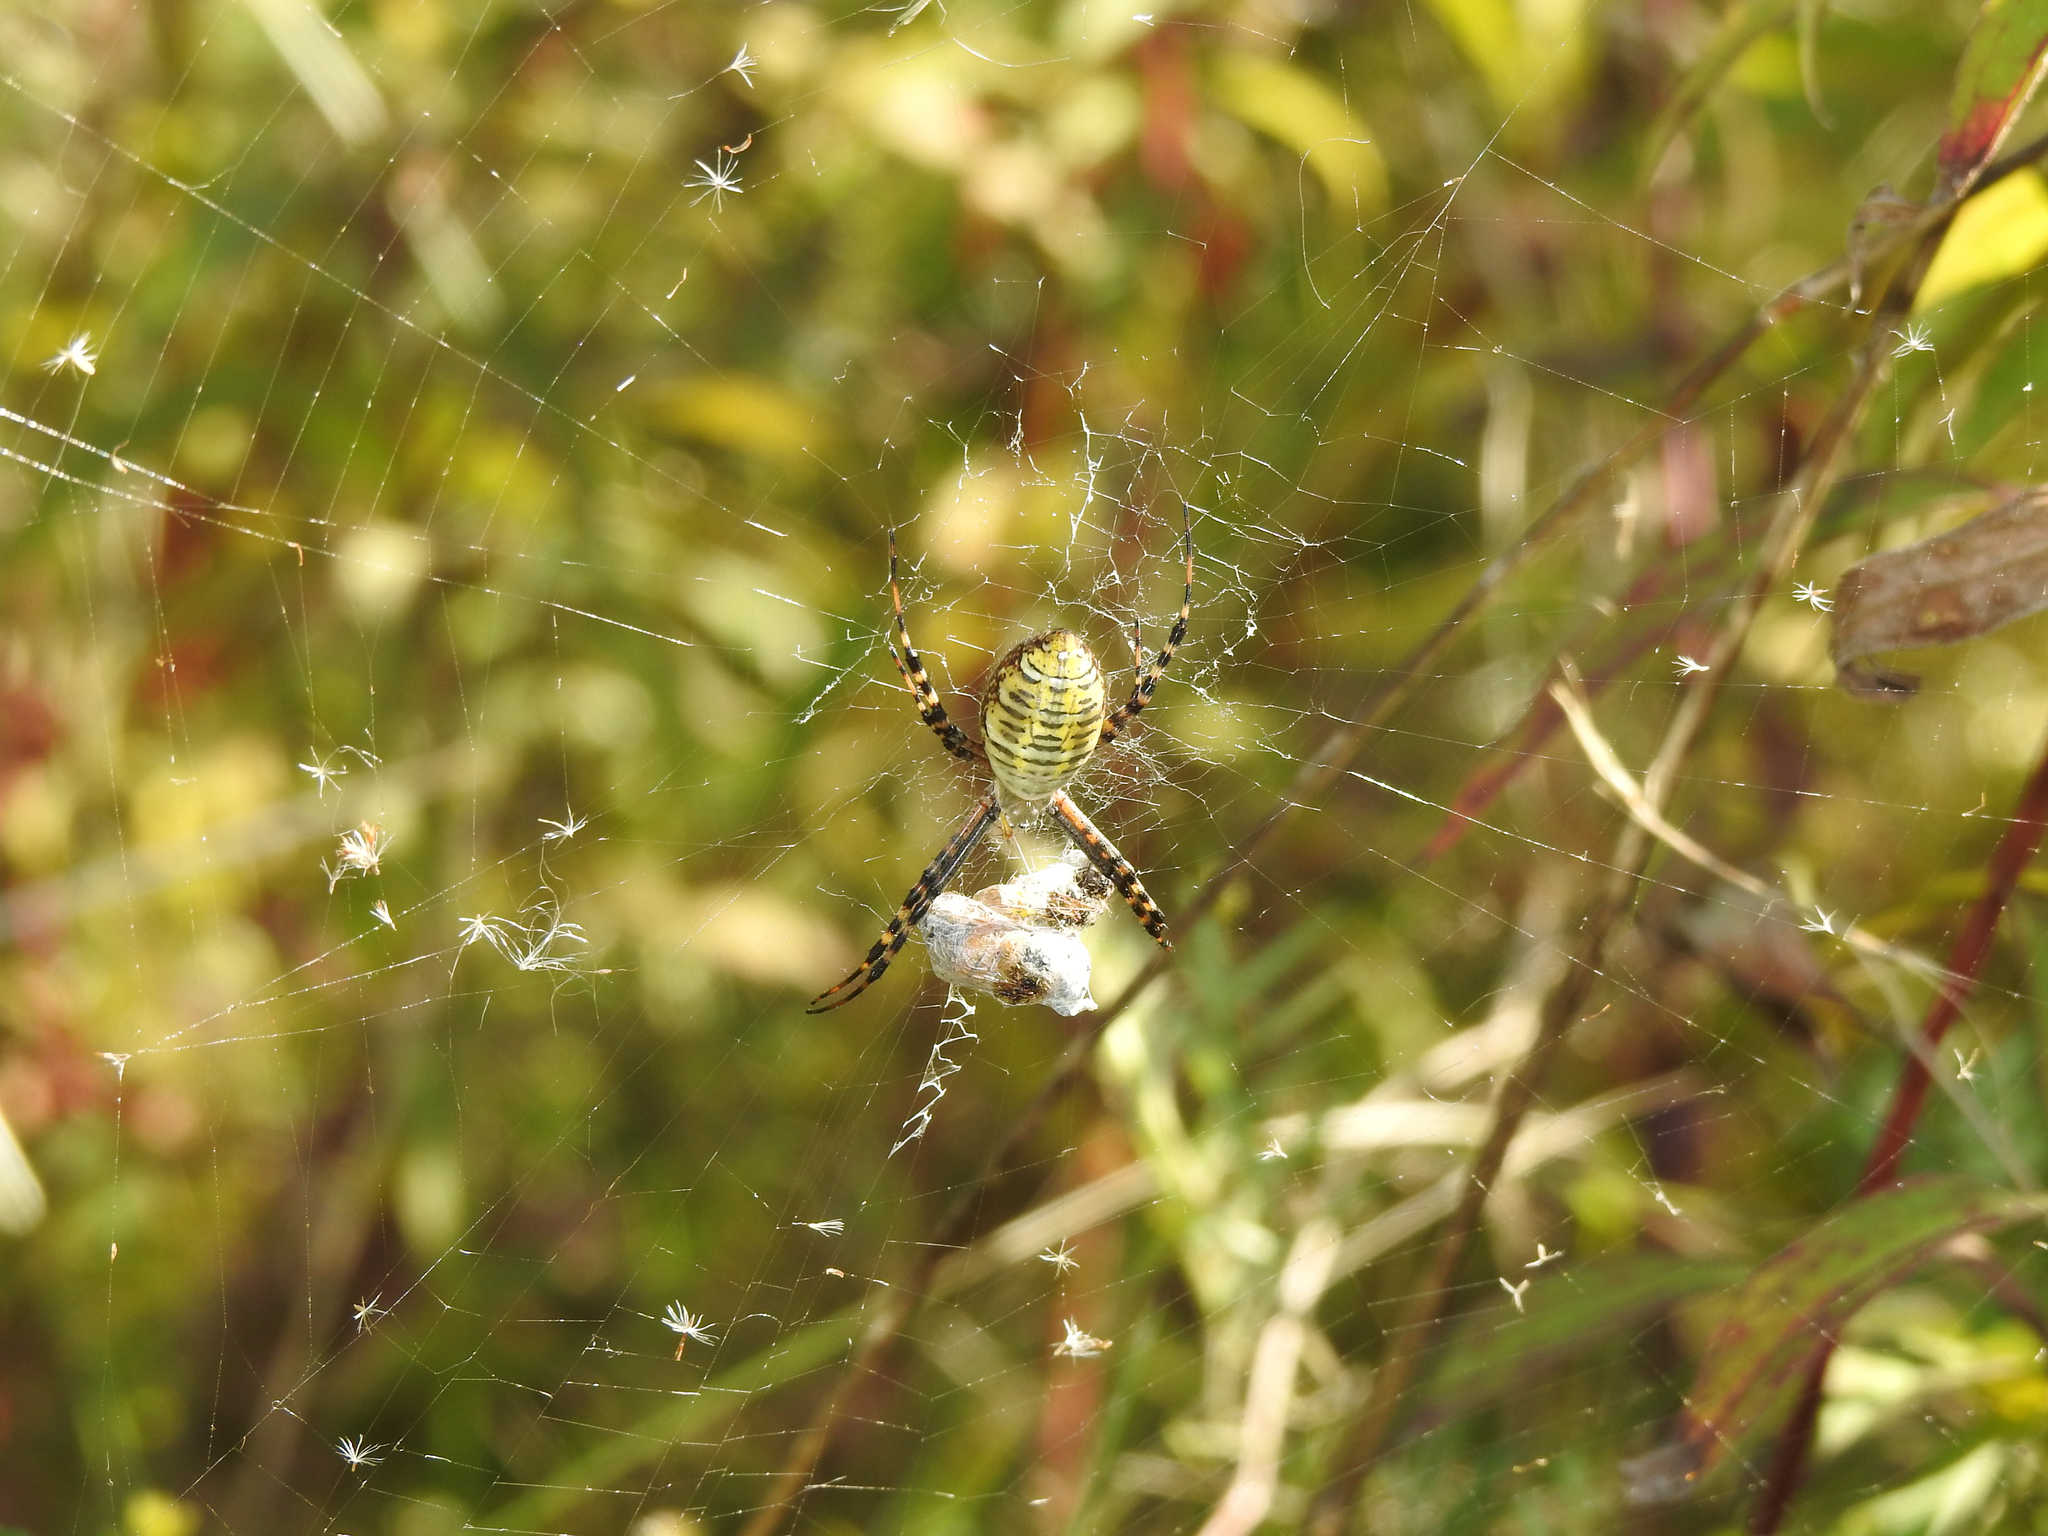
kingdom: Animalia
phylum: Arthropoda
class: Arachnida
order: Araneae
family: Araneidae
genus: Argiope
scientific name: Argiope trifasciata
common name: Banded garden spider
